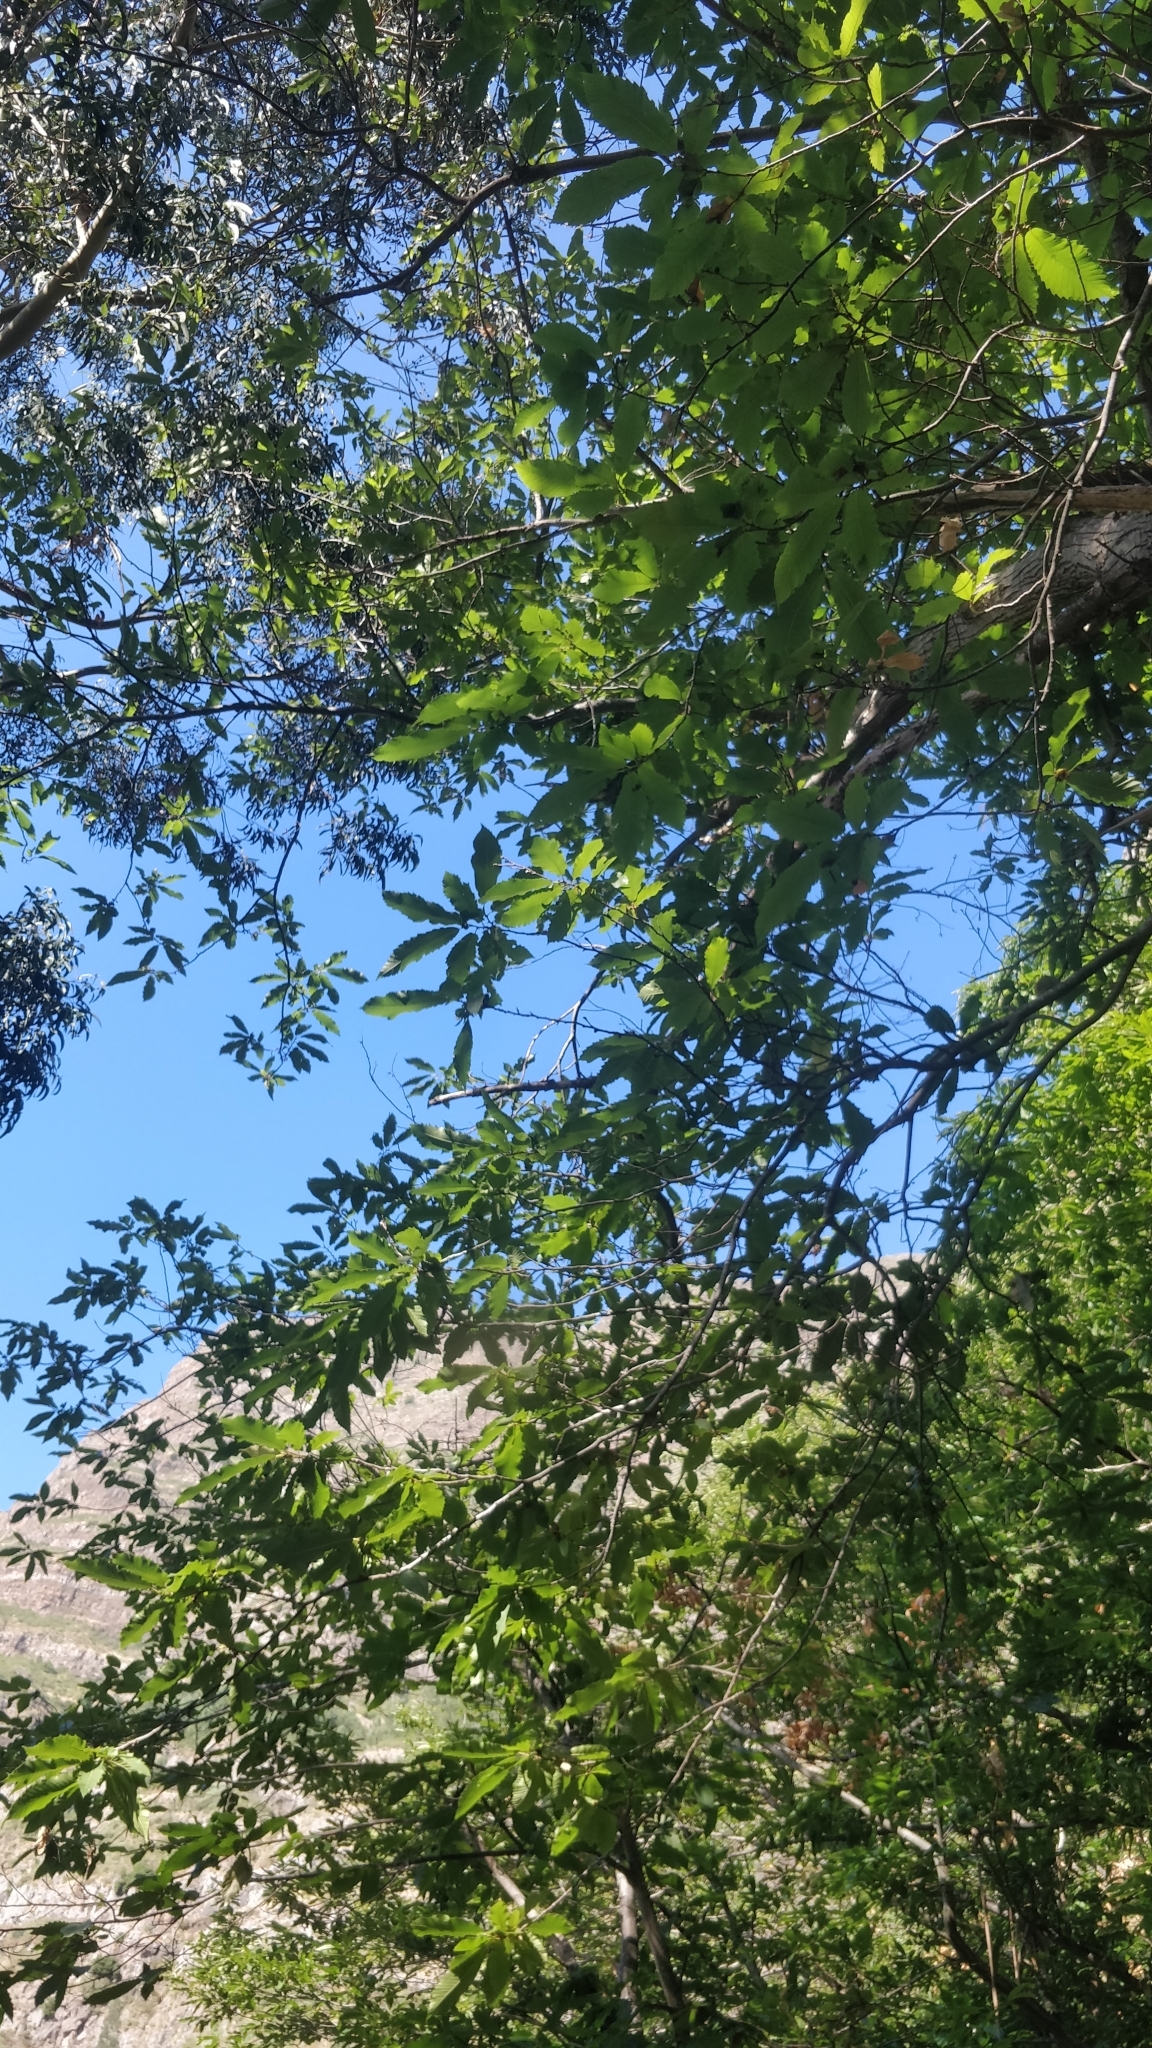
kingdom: Plantae
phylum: Tracheophyta
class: Magnoliopsida
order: Fagales
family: Fagaceae
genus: Castanea
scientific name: Castanea sativa
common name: Sweet chestnut
